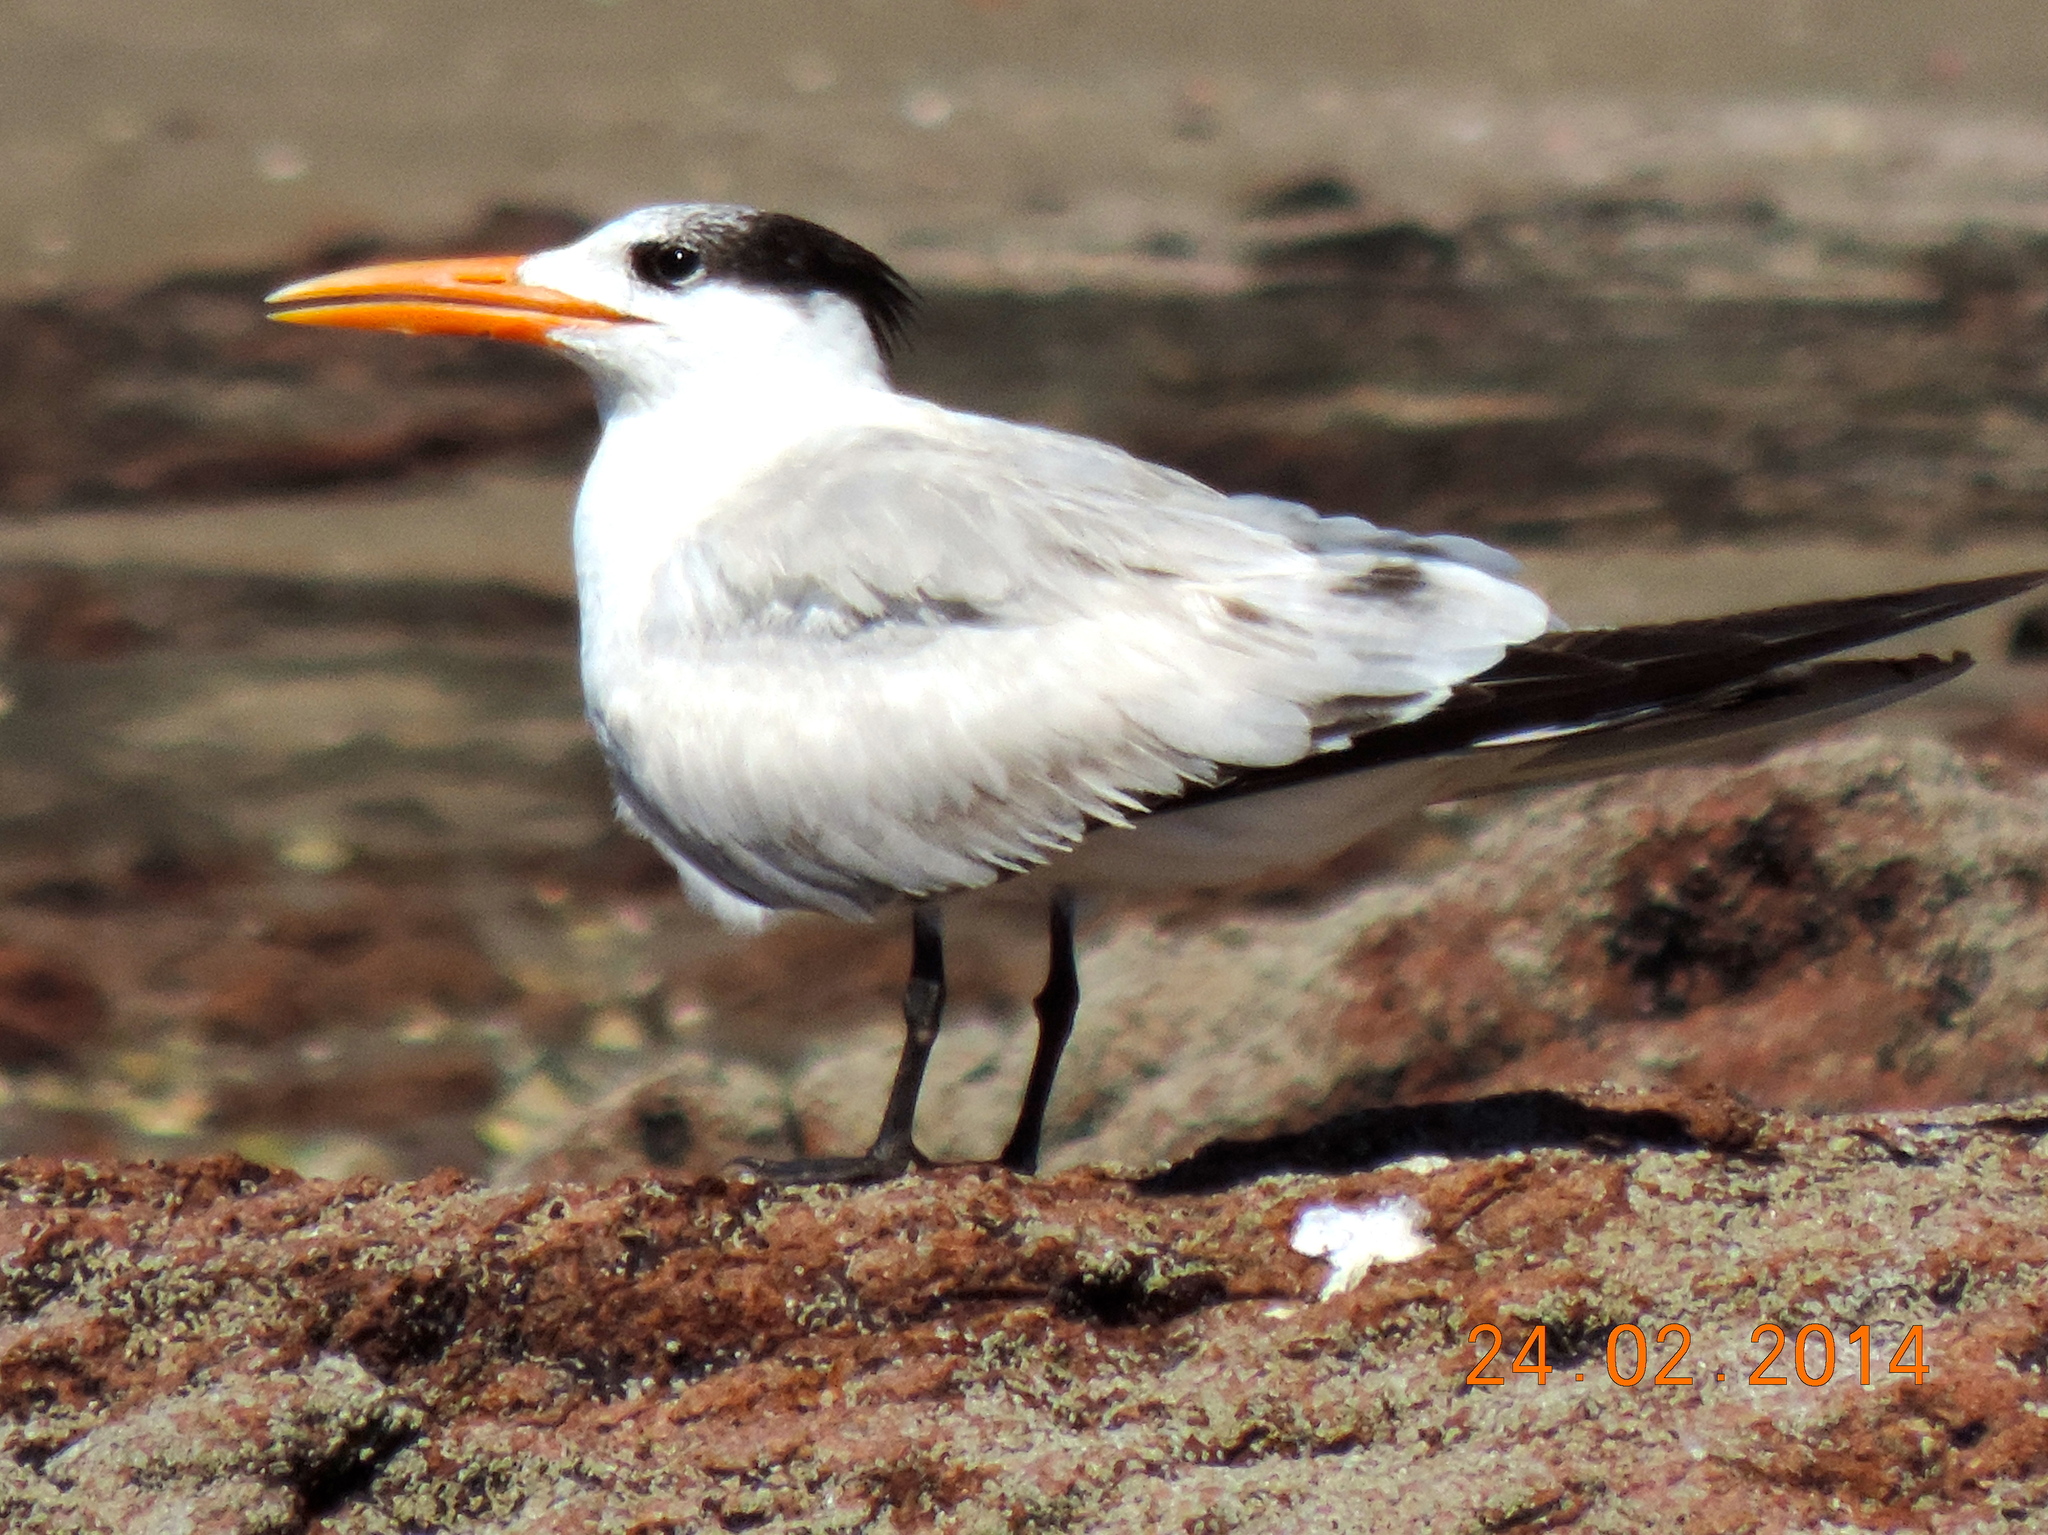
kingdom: Animalia
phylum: Chordata
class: Aves
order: Charadriiformes
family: Laridae
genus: Thalasseus
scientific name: Thalasseus maximus
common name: Royal tern
